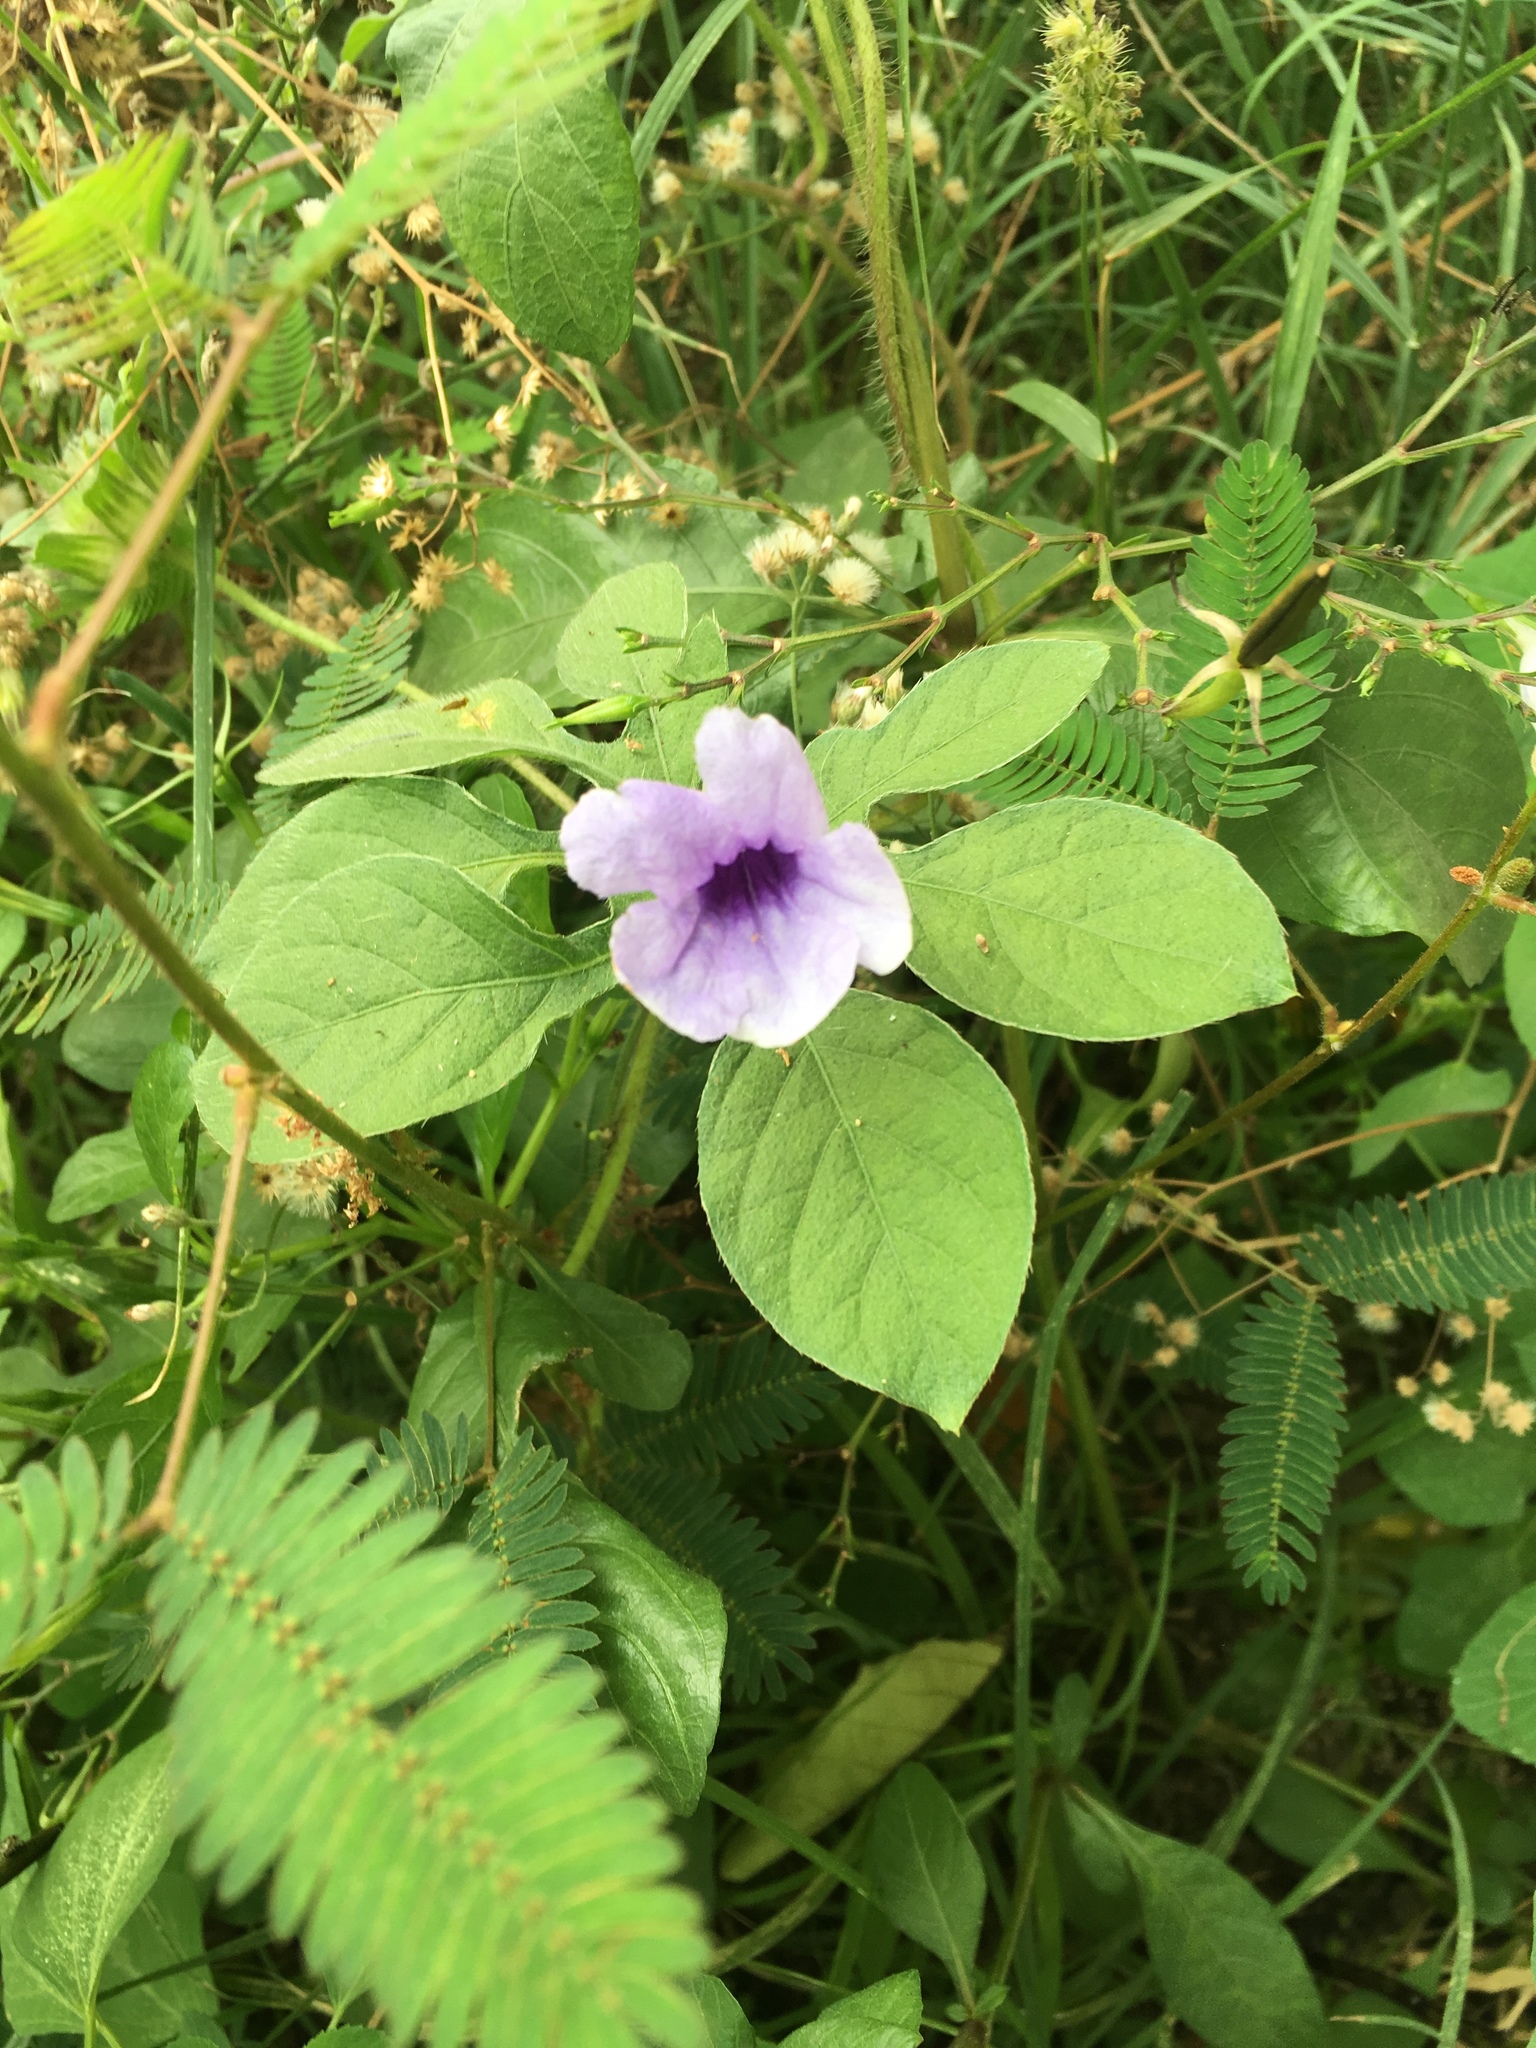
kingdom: Plantae
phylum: Tracheophyta
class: Magnoliopsida
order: Lamiales
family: Acanthaceae
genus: Ruellia
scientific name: Ruellia tuberosa
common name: Devil's bit
